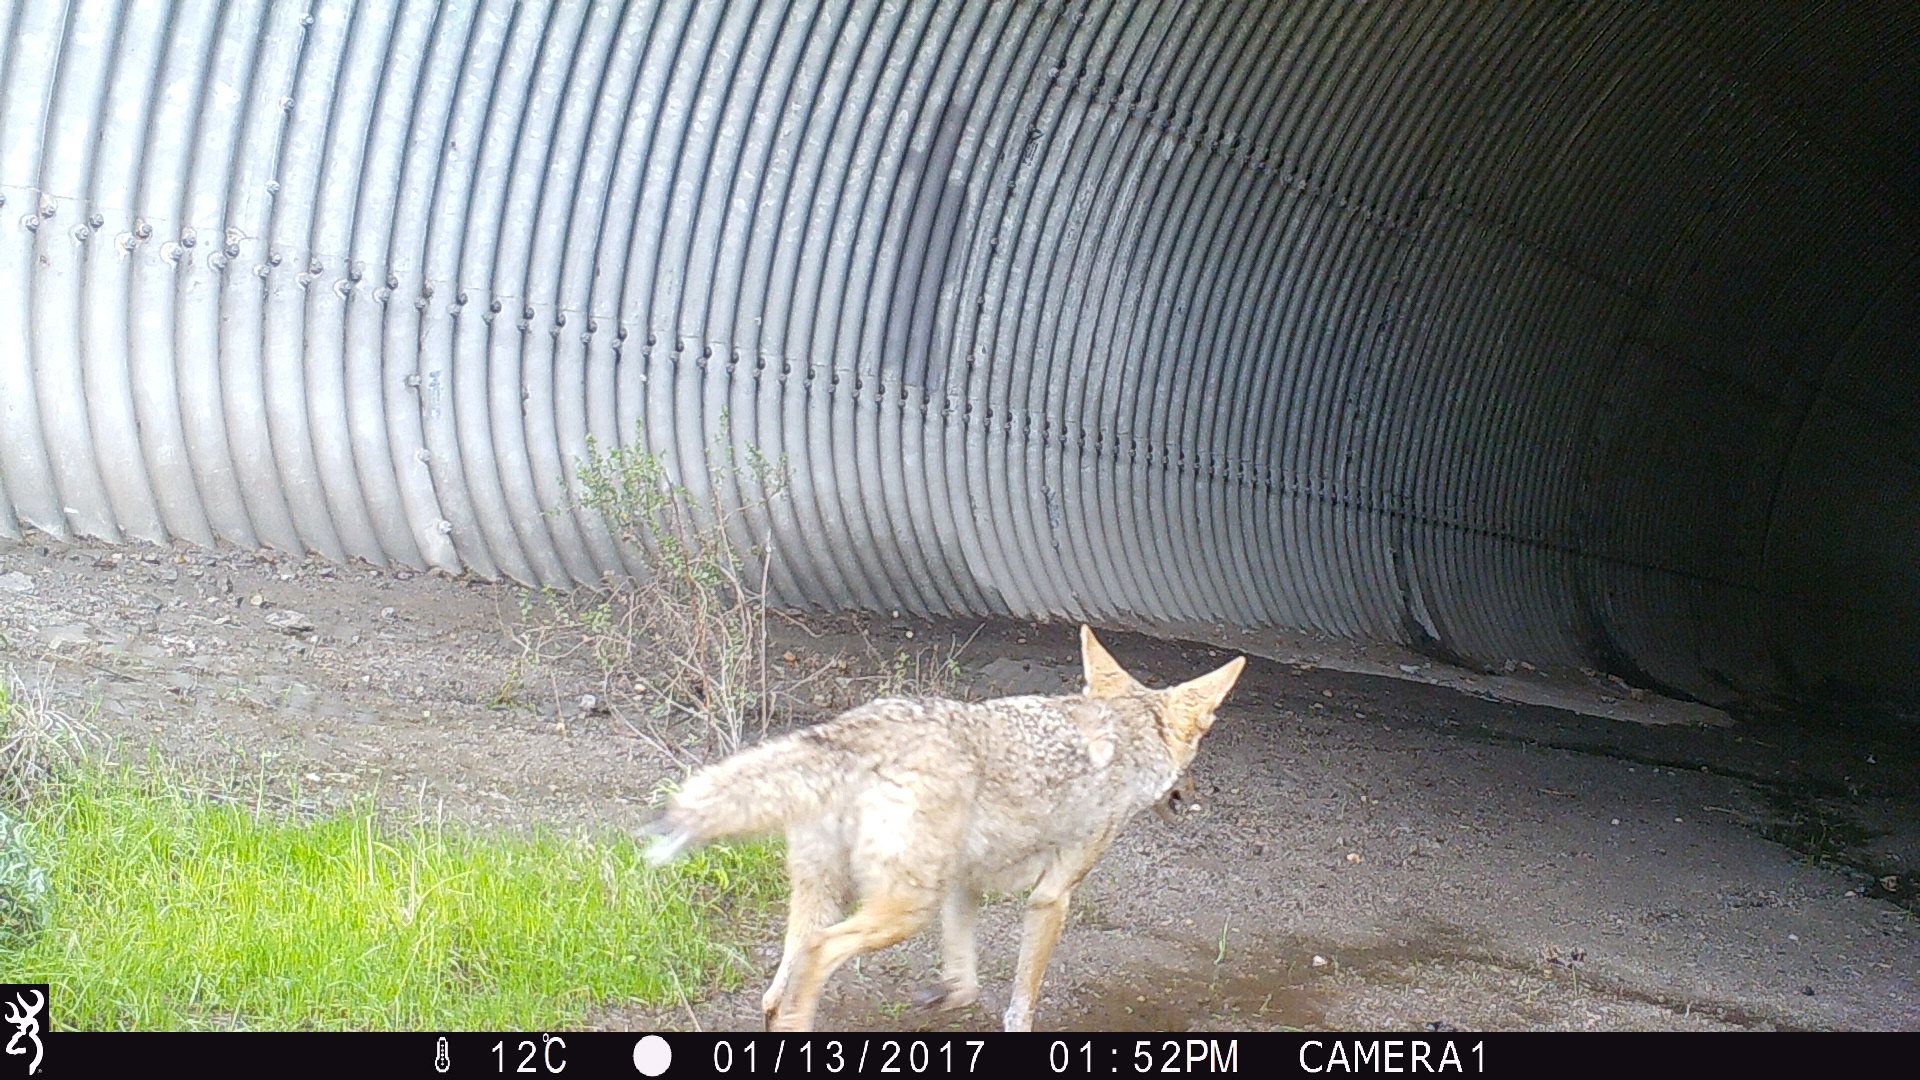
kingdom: Animalia
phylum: Chordata
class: Mammalia
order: Carnivora
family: Canidae
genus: Canis
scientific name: Canis latrans
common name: Coyote
